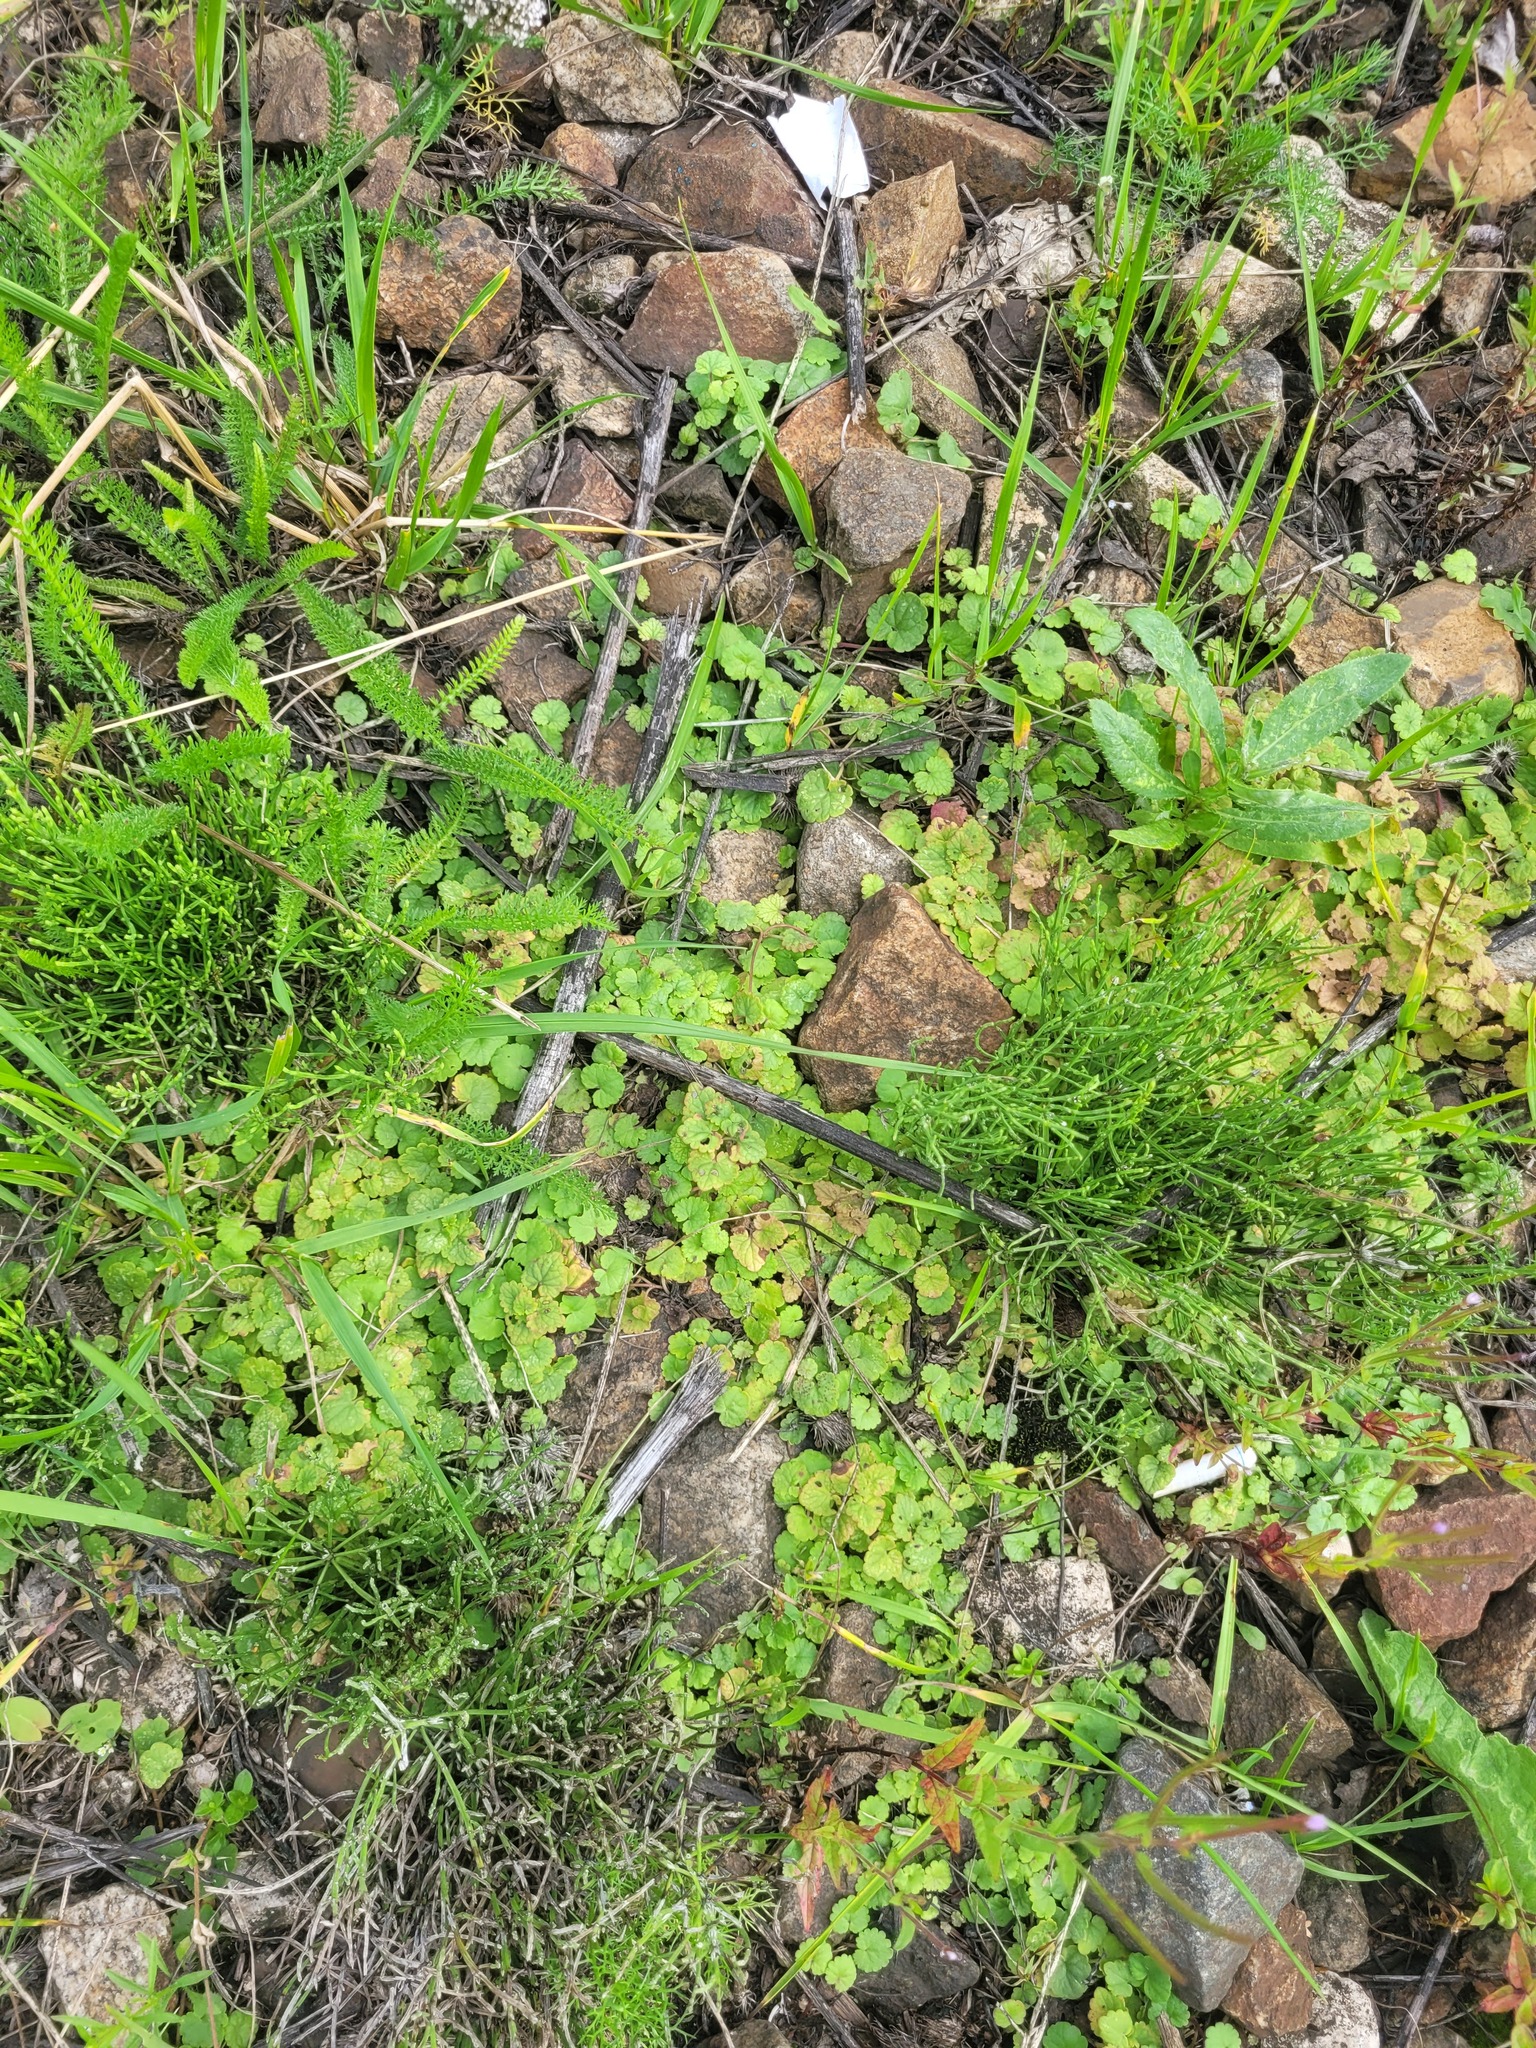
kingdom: Plantae
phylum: Tracheophyta
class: Magnoliopsida
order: Lamiales
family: Lamiaceae
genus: Glechoma
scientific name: Glechoma hederacea
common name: Ground ivy
